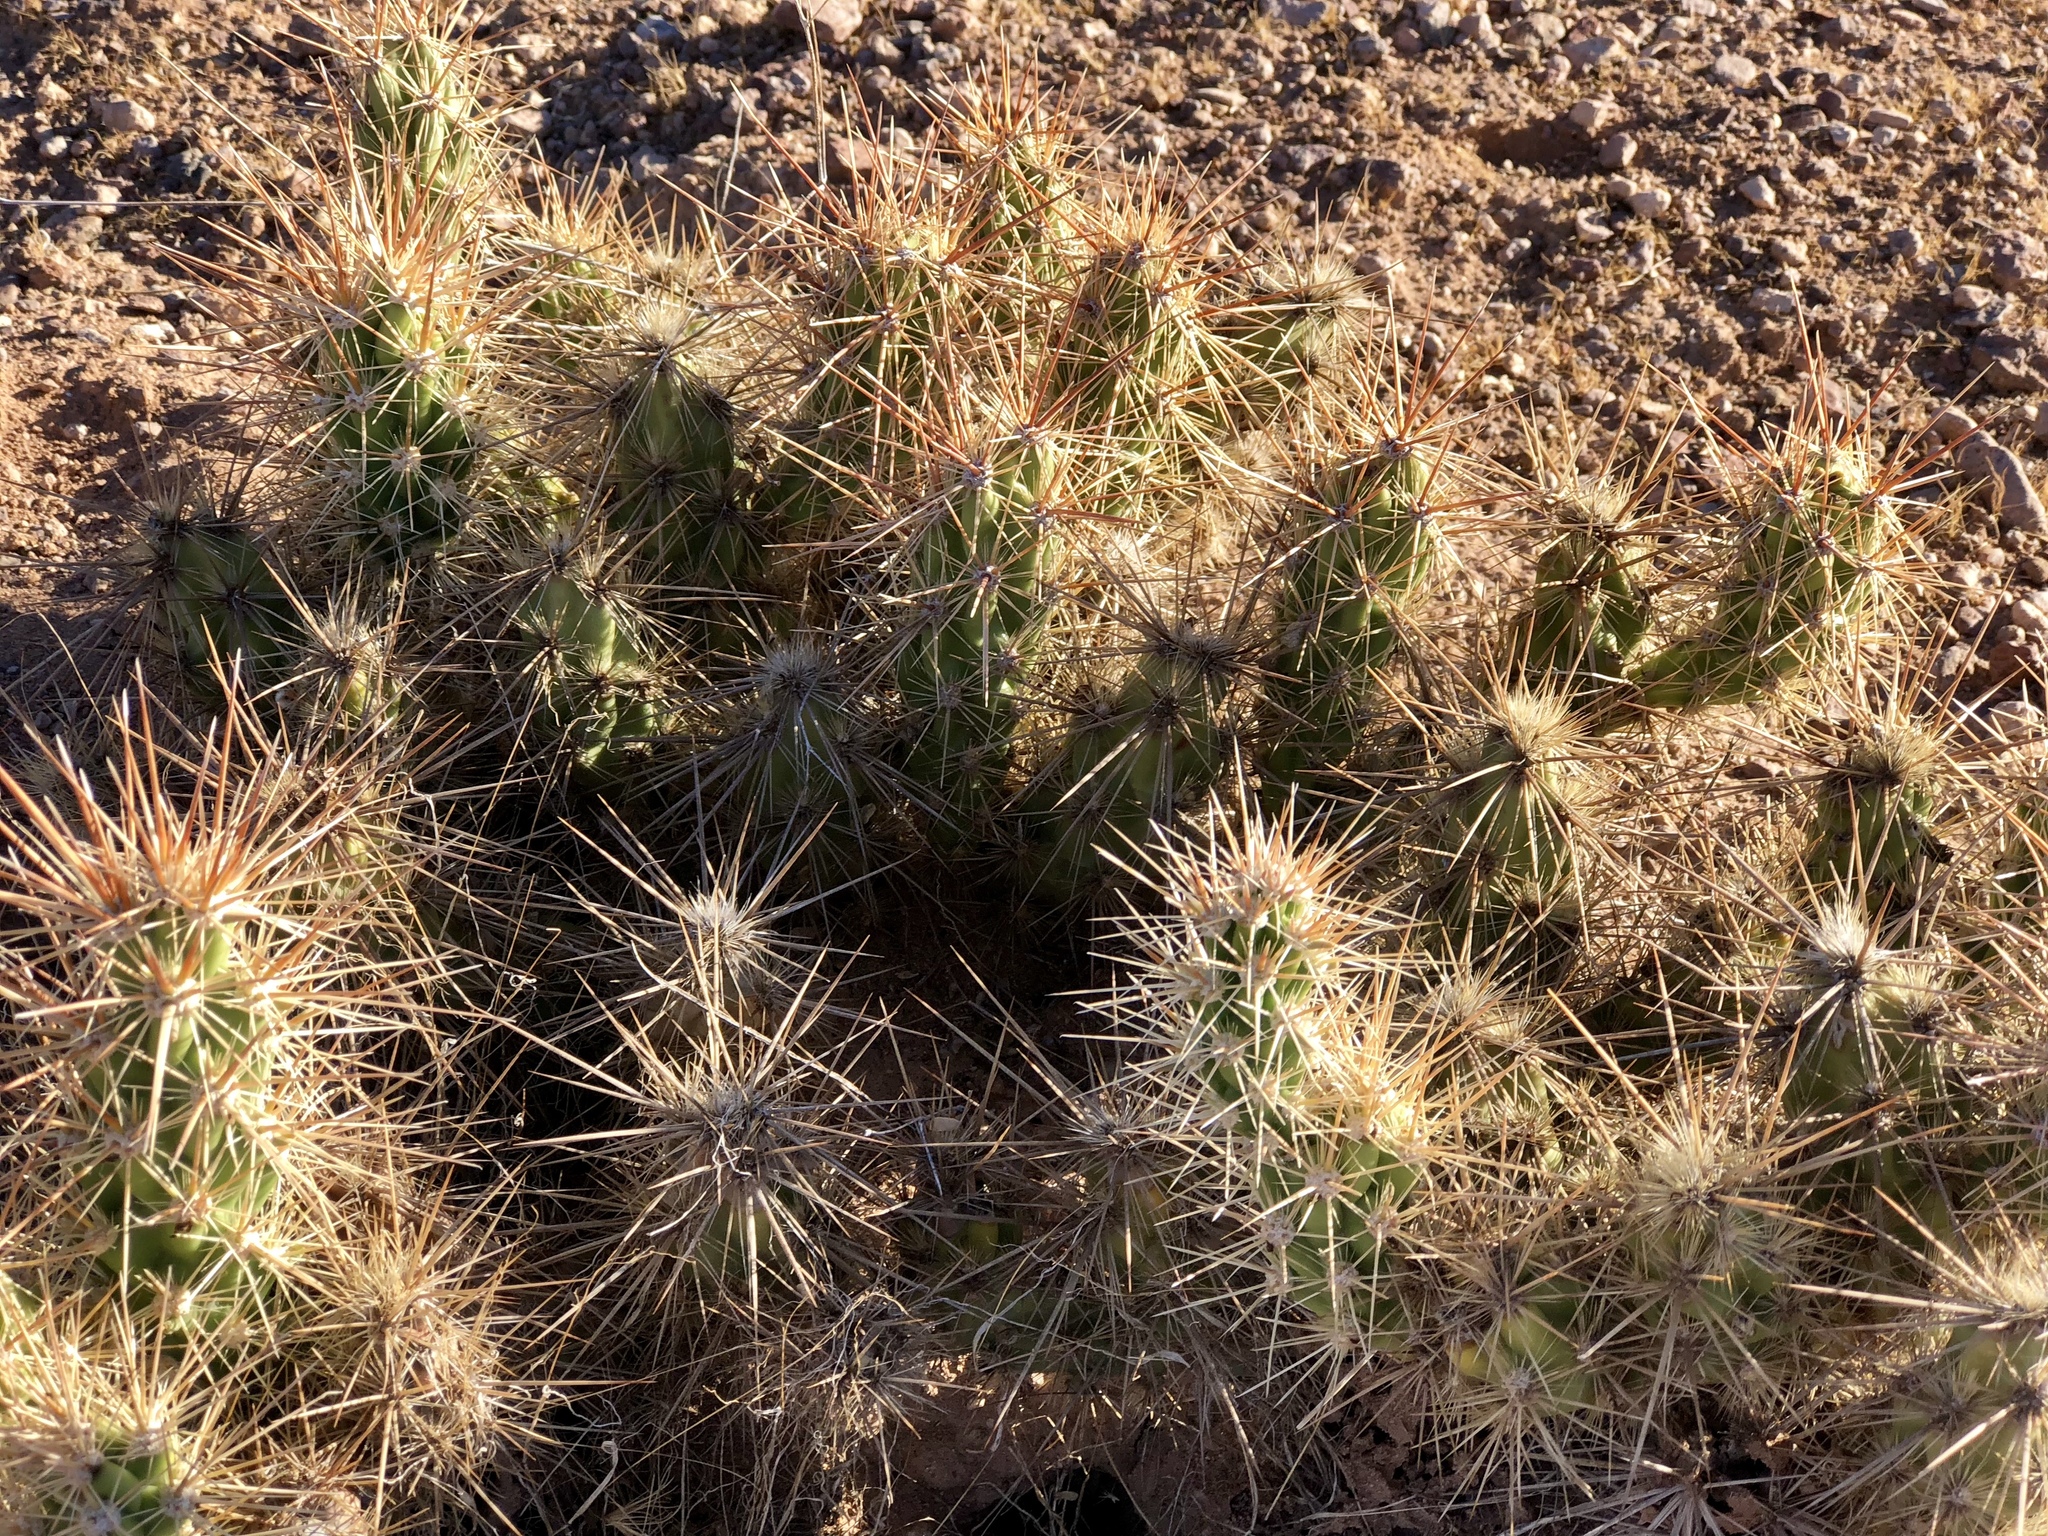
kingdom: Plantae
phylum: Tracheophyta
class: Magnoliopsida
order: Caryophyllales
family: Cactaceae
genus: Grusonia
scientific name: Grusonia emoryi
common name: Stanly's club cholla
